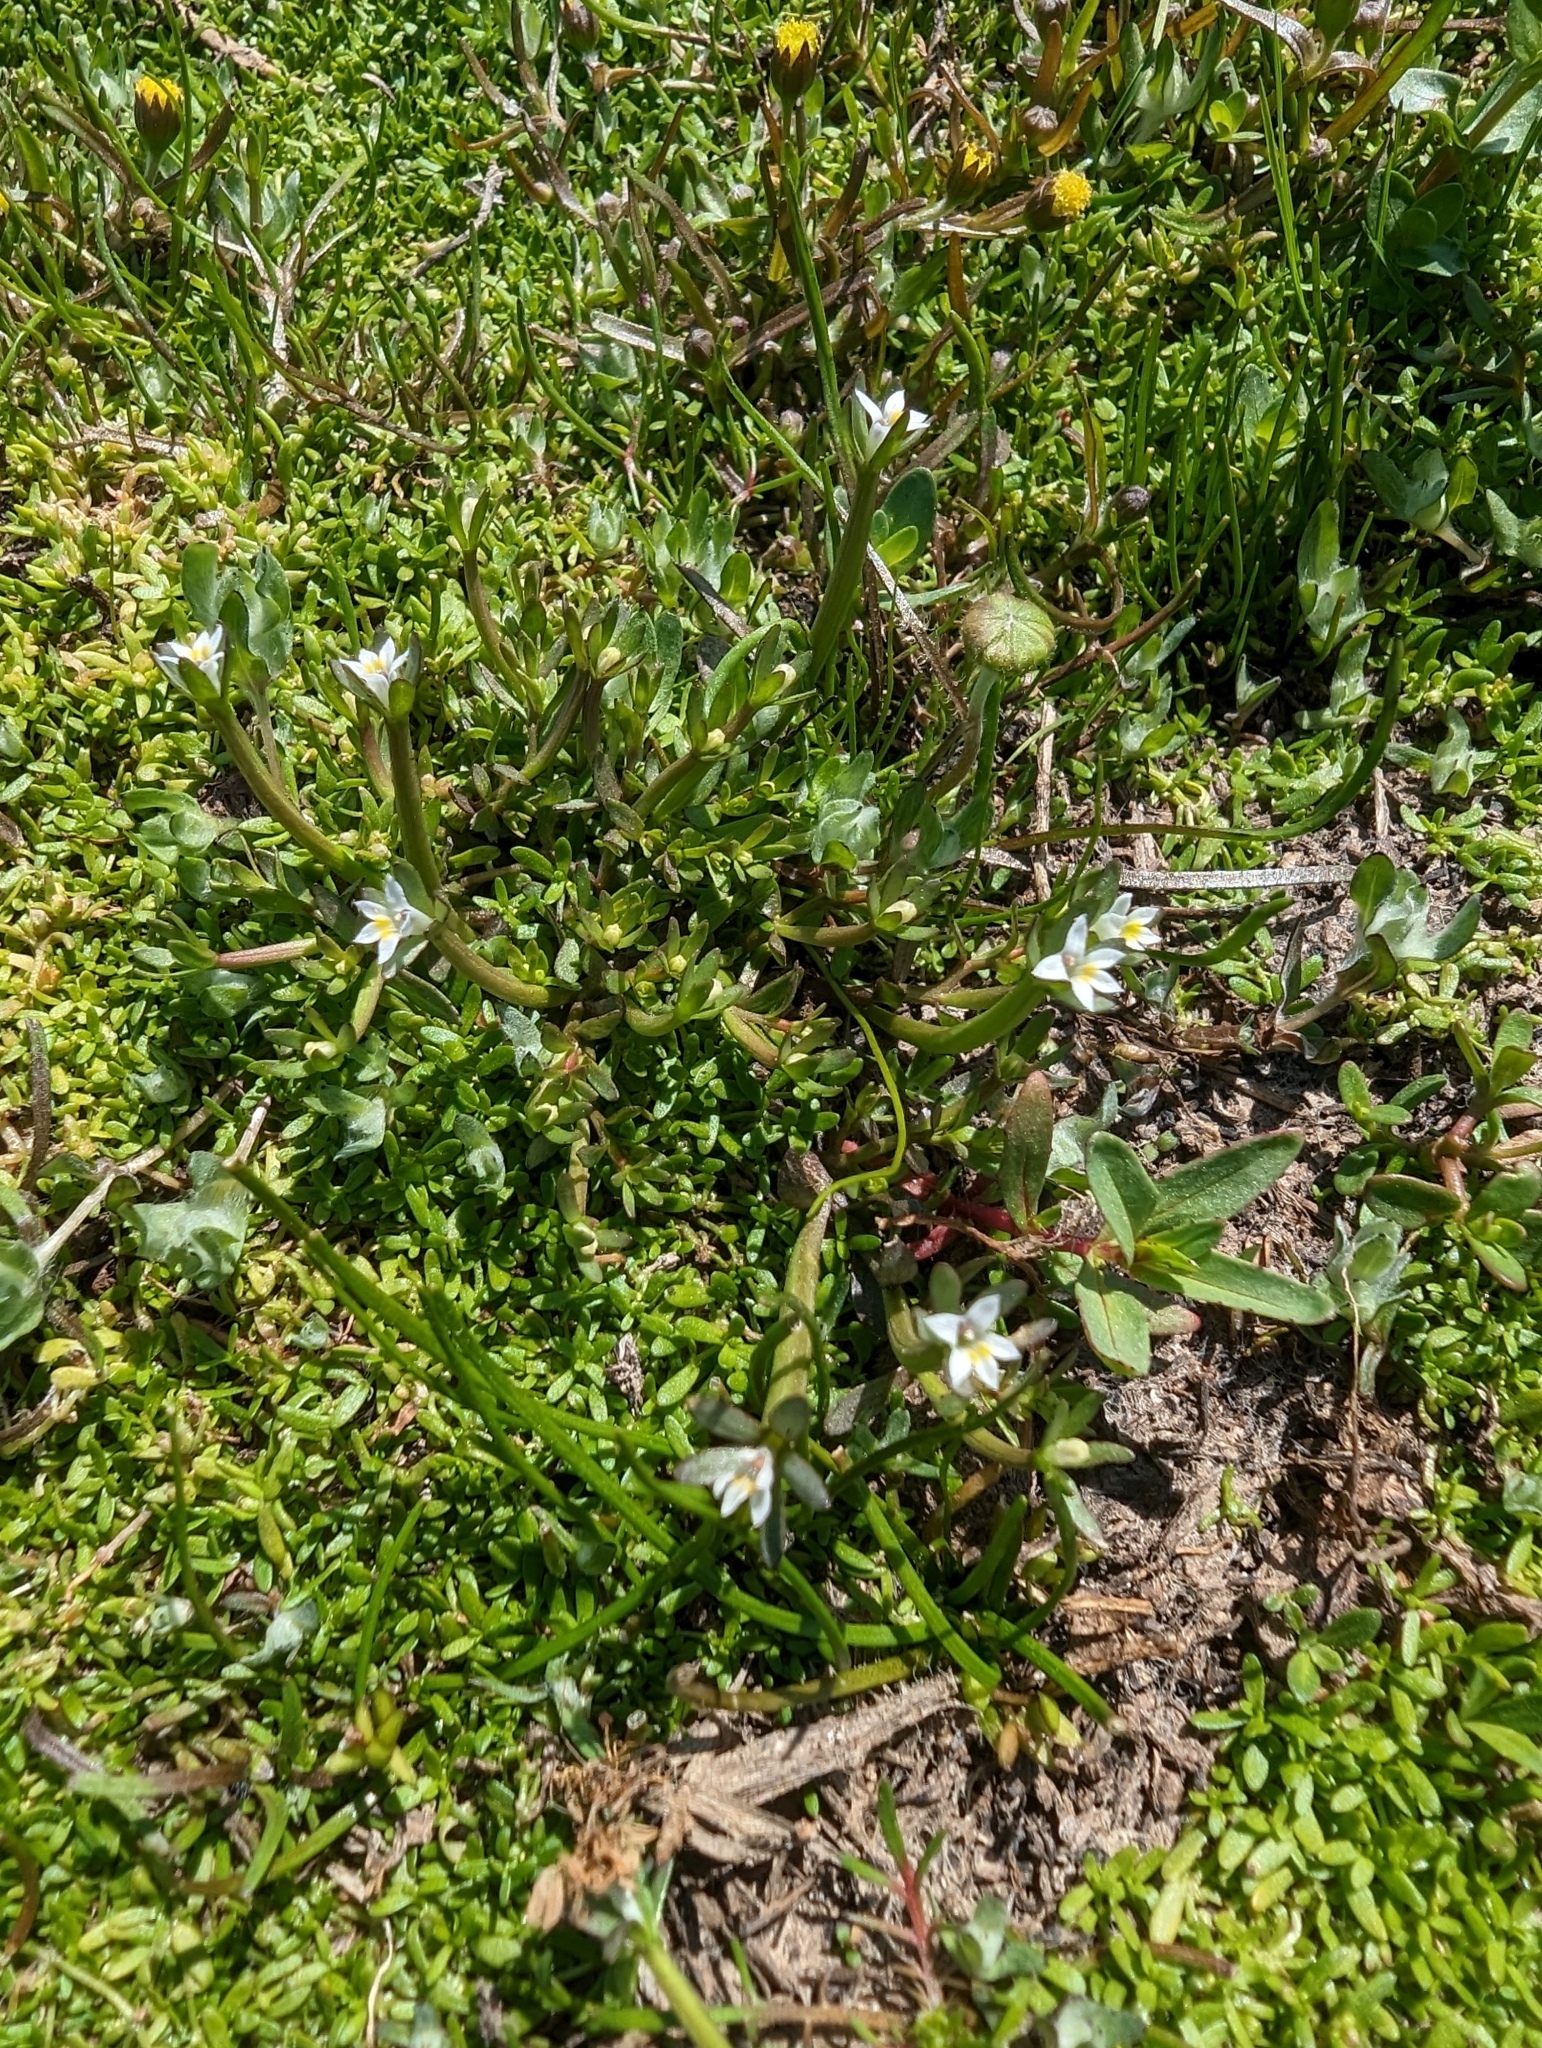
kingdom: Plantae
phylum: Tracheophyta
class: Magnoliopsida
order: Asterales
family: Campanulaceae
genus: Downingia
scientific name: Downingia pusilla
